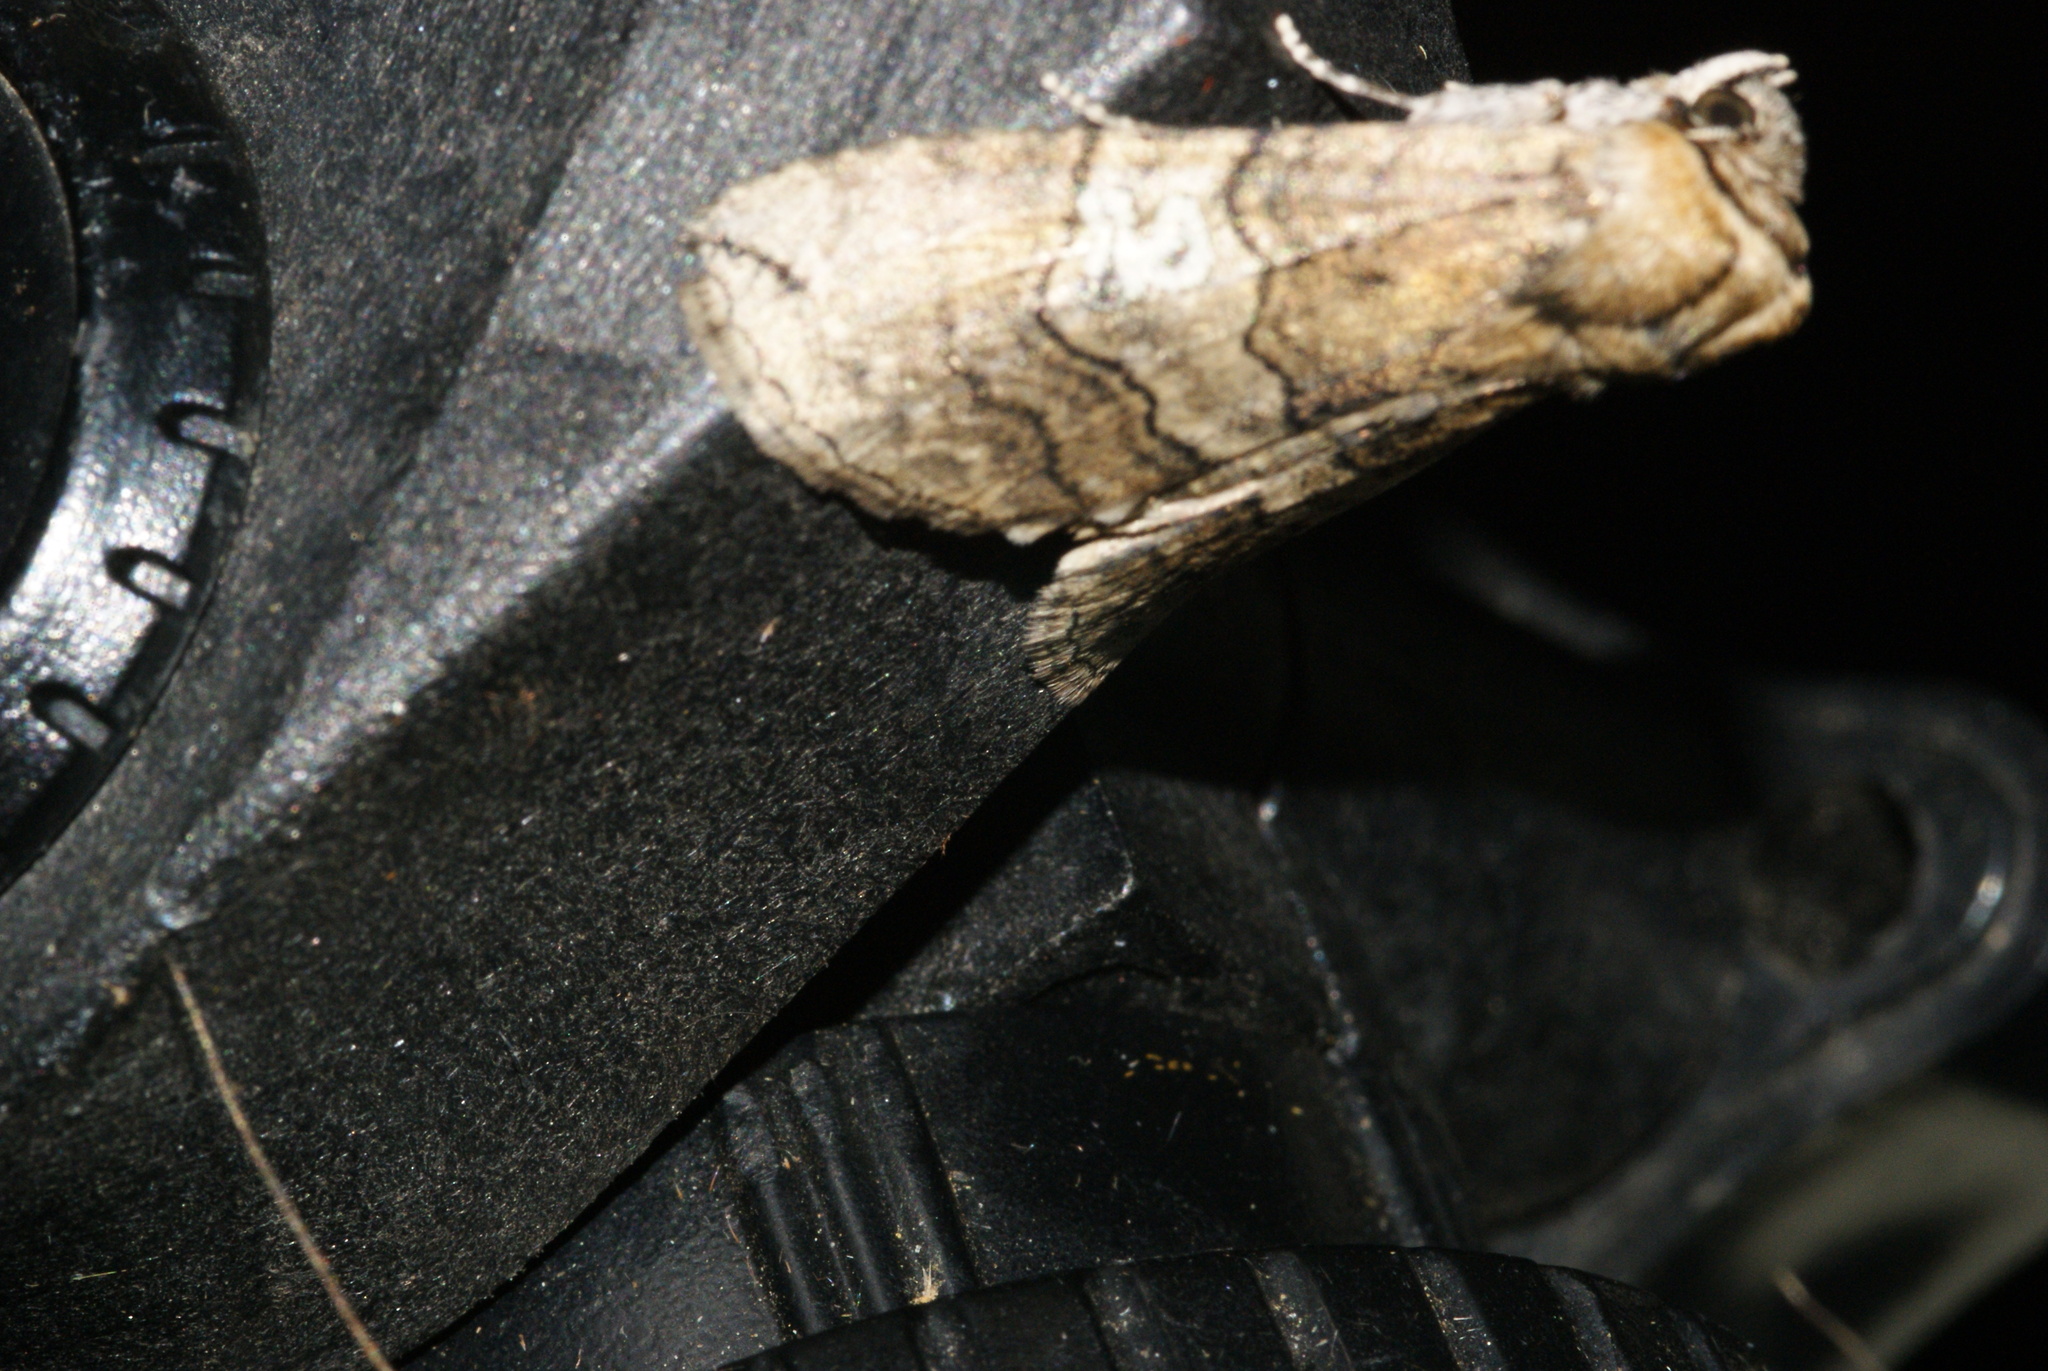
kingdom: Animalia
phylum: Arthropoda
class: Insecta
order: Lepidoptera
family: Drepanidae
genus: Tethea
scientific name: Tethea ocularis
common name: Figure of eighty
